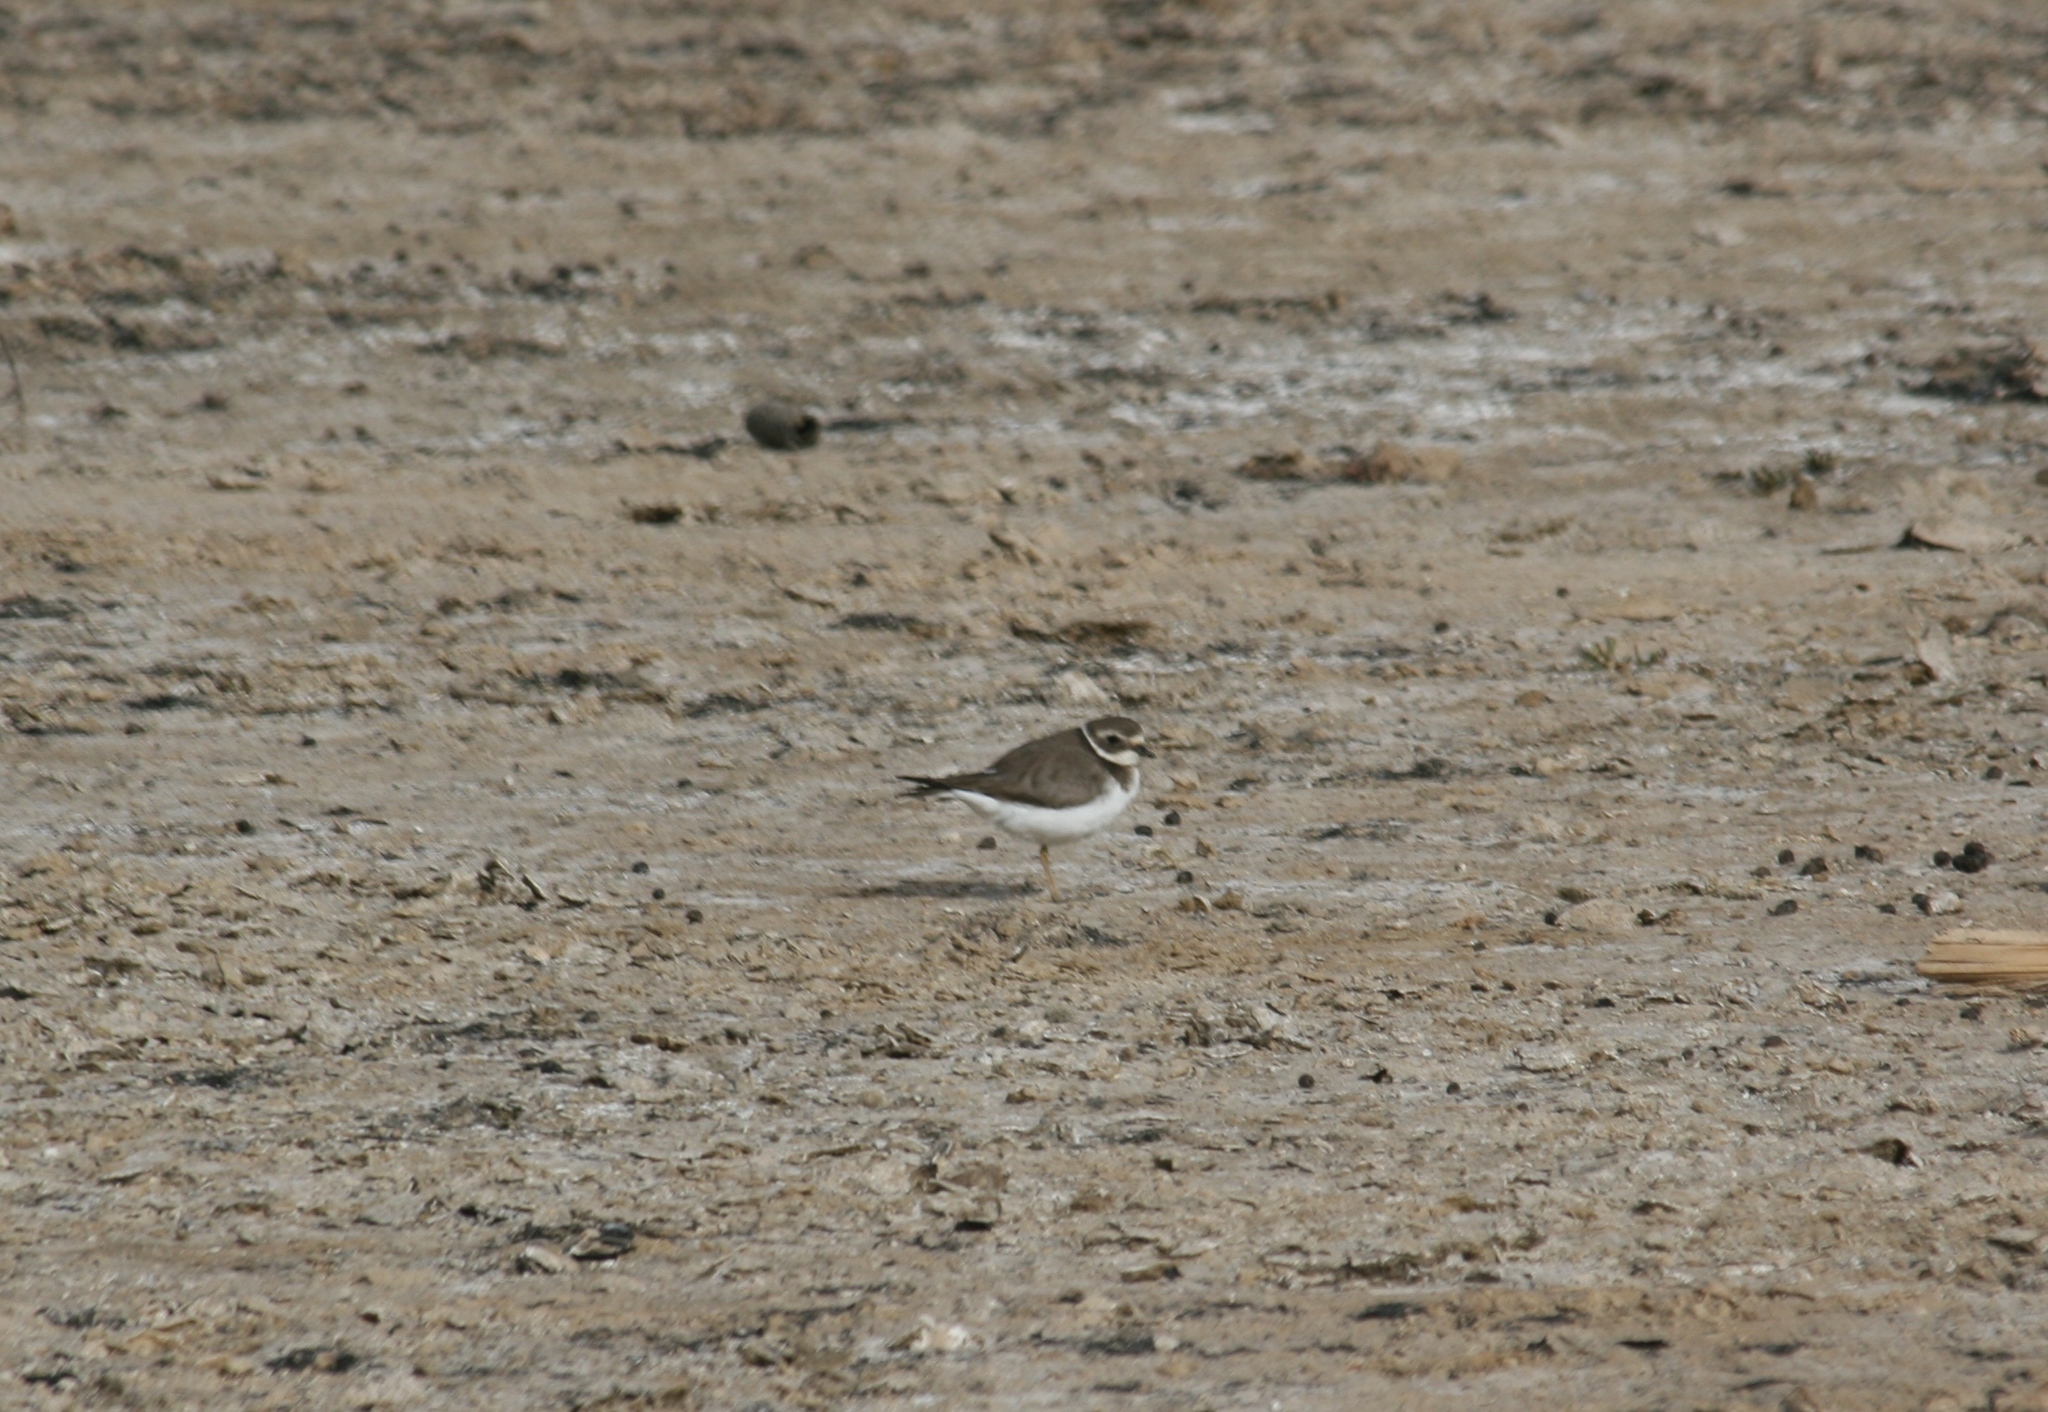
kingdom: Animalia
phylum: Chordata
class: Aves
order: Charadriiformes
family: Charadriidae
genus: Charadrius
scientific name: Charadrius hiaticula
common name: Common ringed plover
